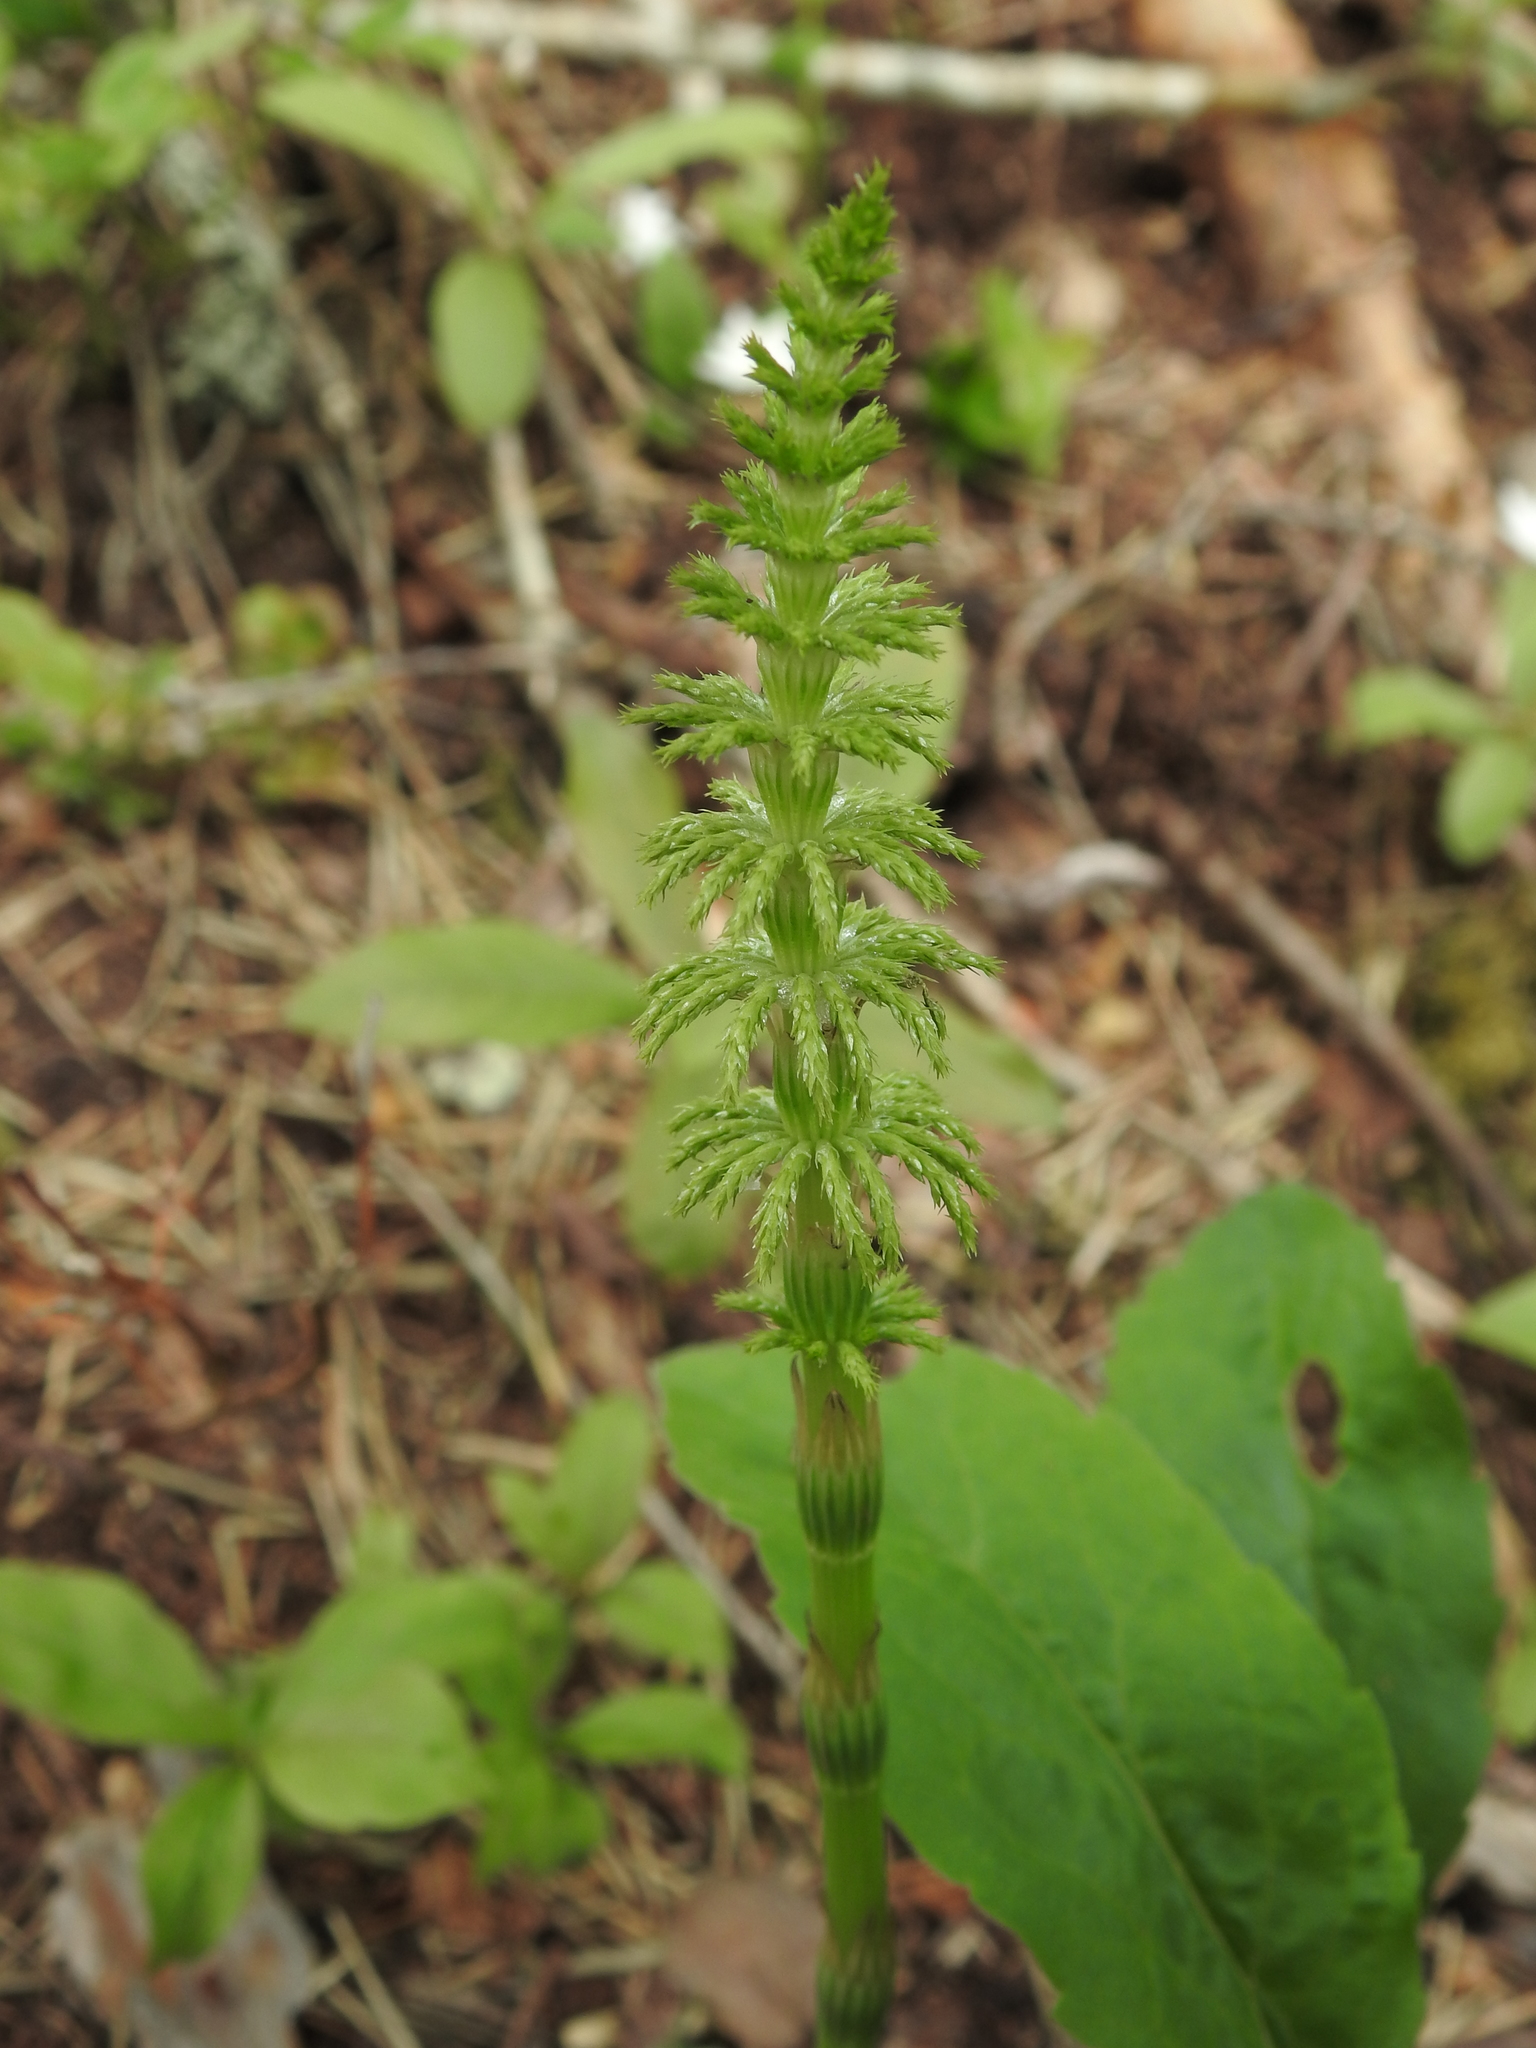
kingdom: Plantae
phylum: Tracheophyta
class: Polypodiopsida
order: Equisetales
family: Equisetaceae
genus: Equisetum
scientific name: Equisetum sylvaticum
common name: Wood horsetail
